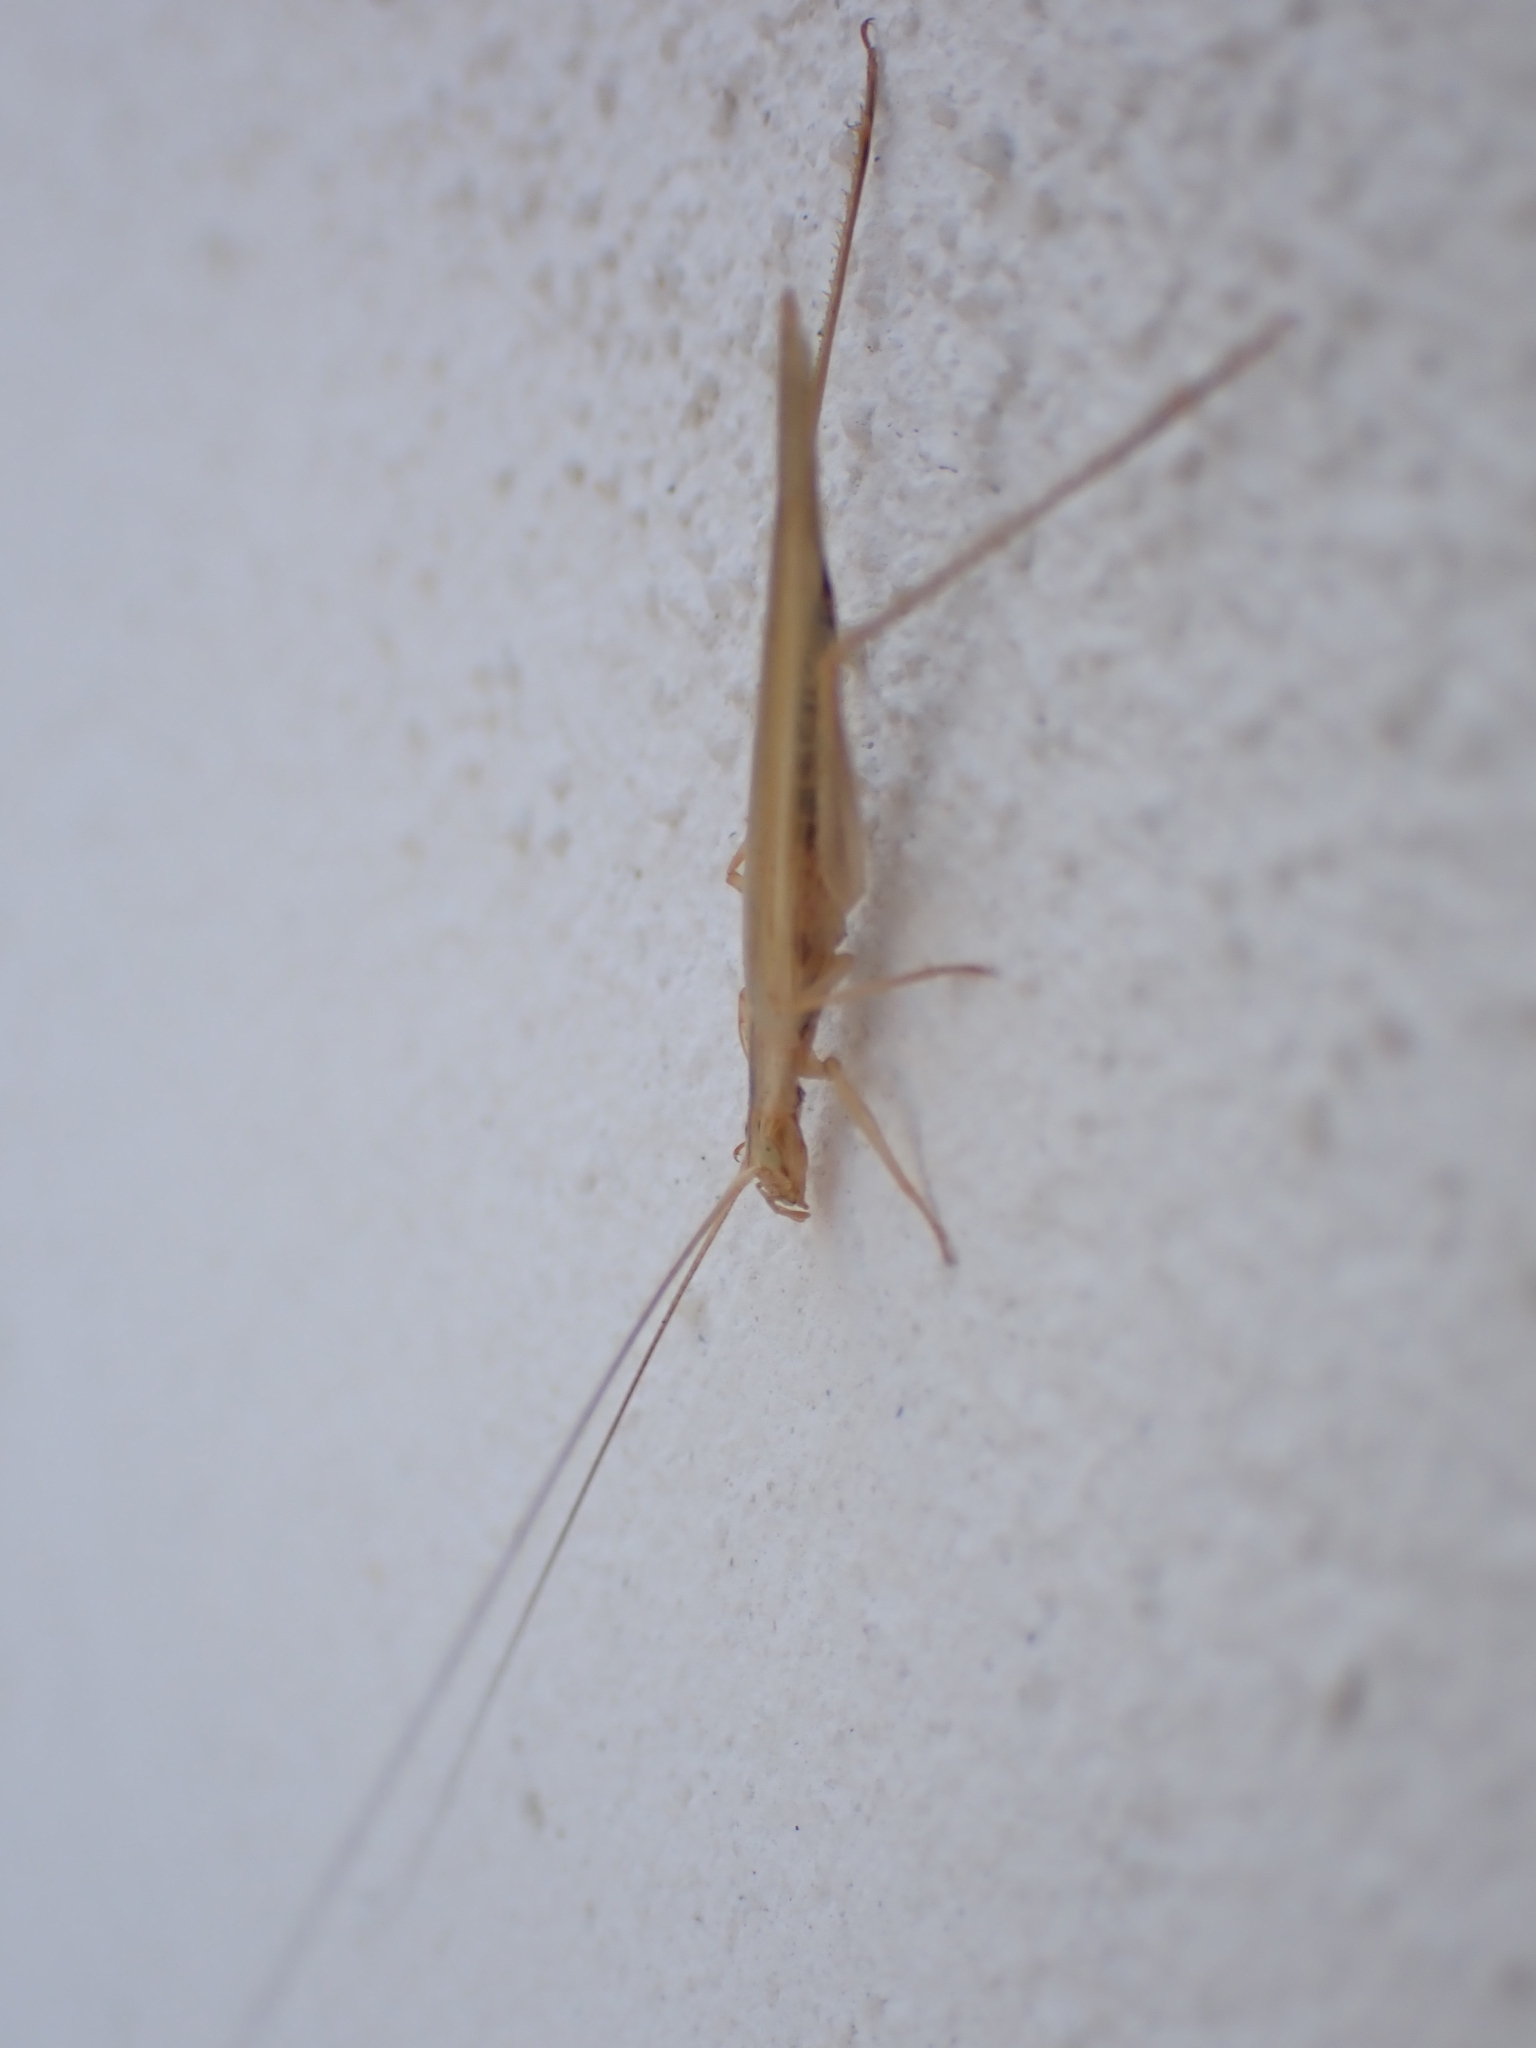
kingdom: Animalia
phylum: Arthropoda
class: Insecta
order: Orthoptera
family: Gryllidae
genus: Oecanthus
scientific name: Oecanthus dulcisonans
